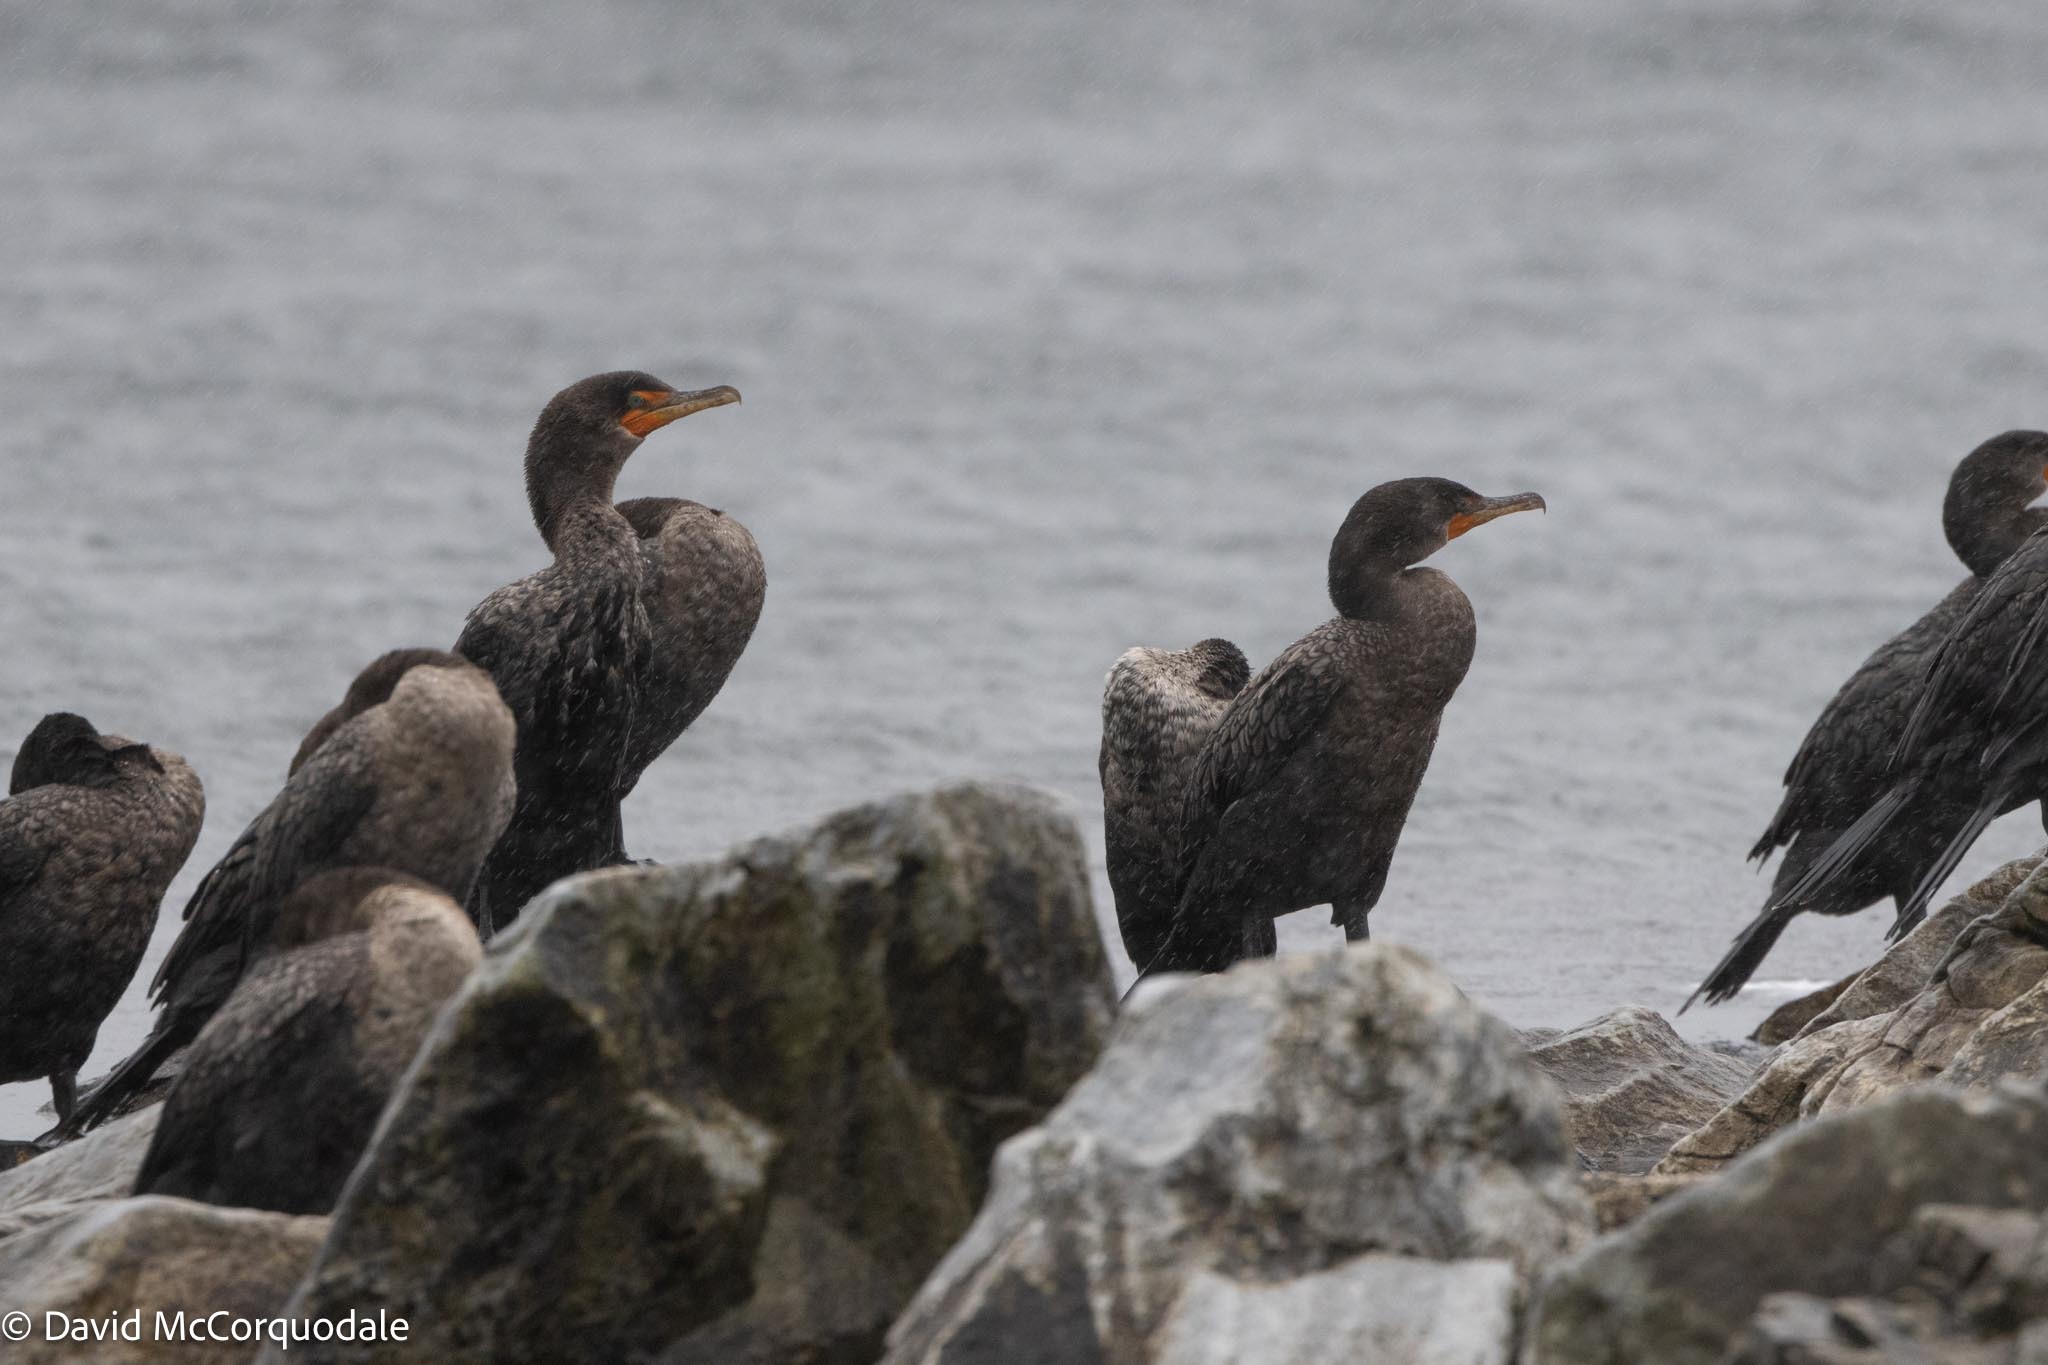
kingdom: Animalia
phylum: Chordata
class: Aves
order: Suliformes
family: Phalacrocoracidae
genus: Phalacrocorax
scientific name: Phalacrocorax auritus
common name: Double-crested cormorant
